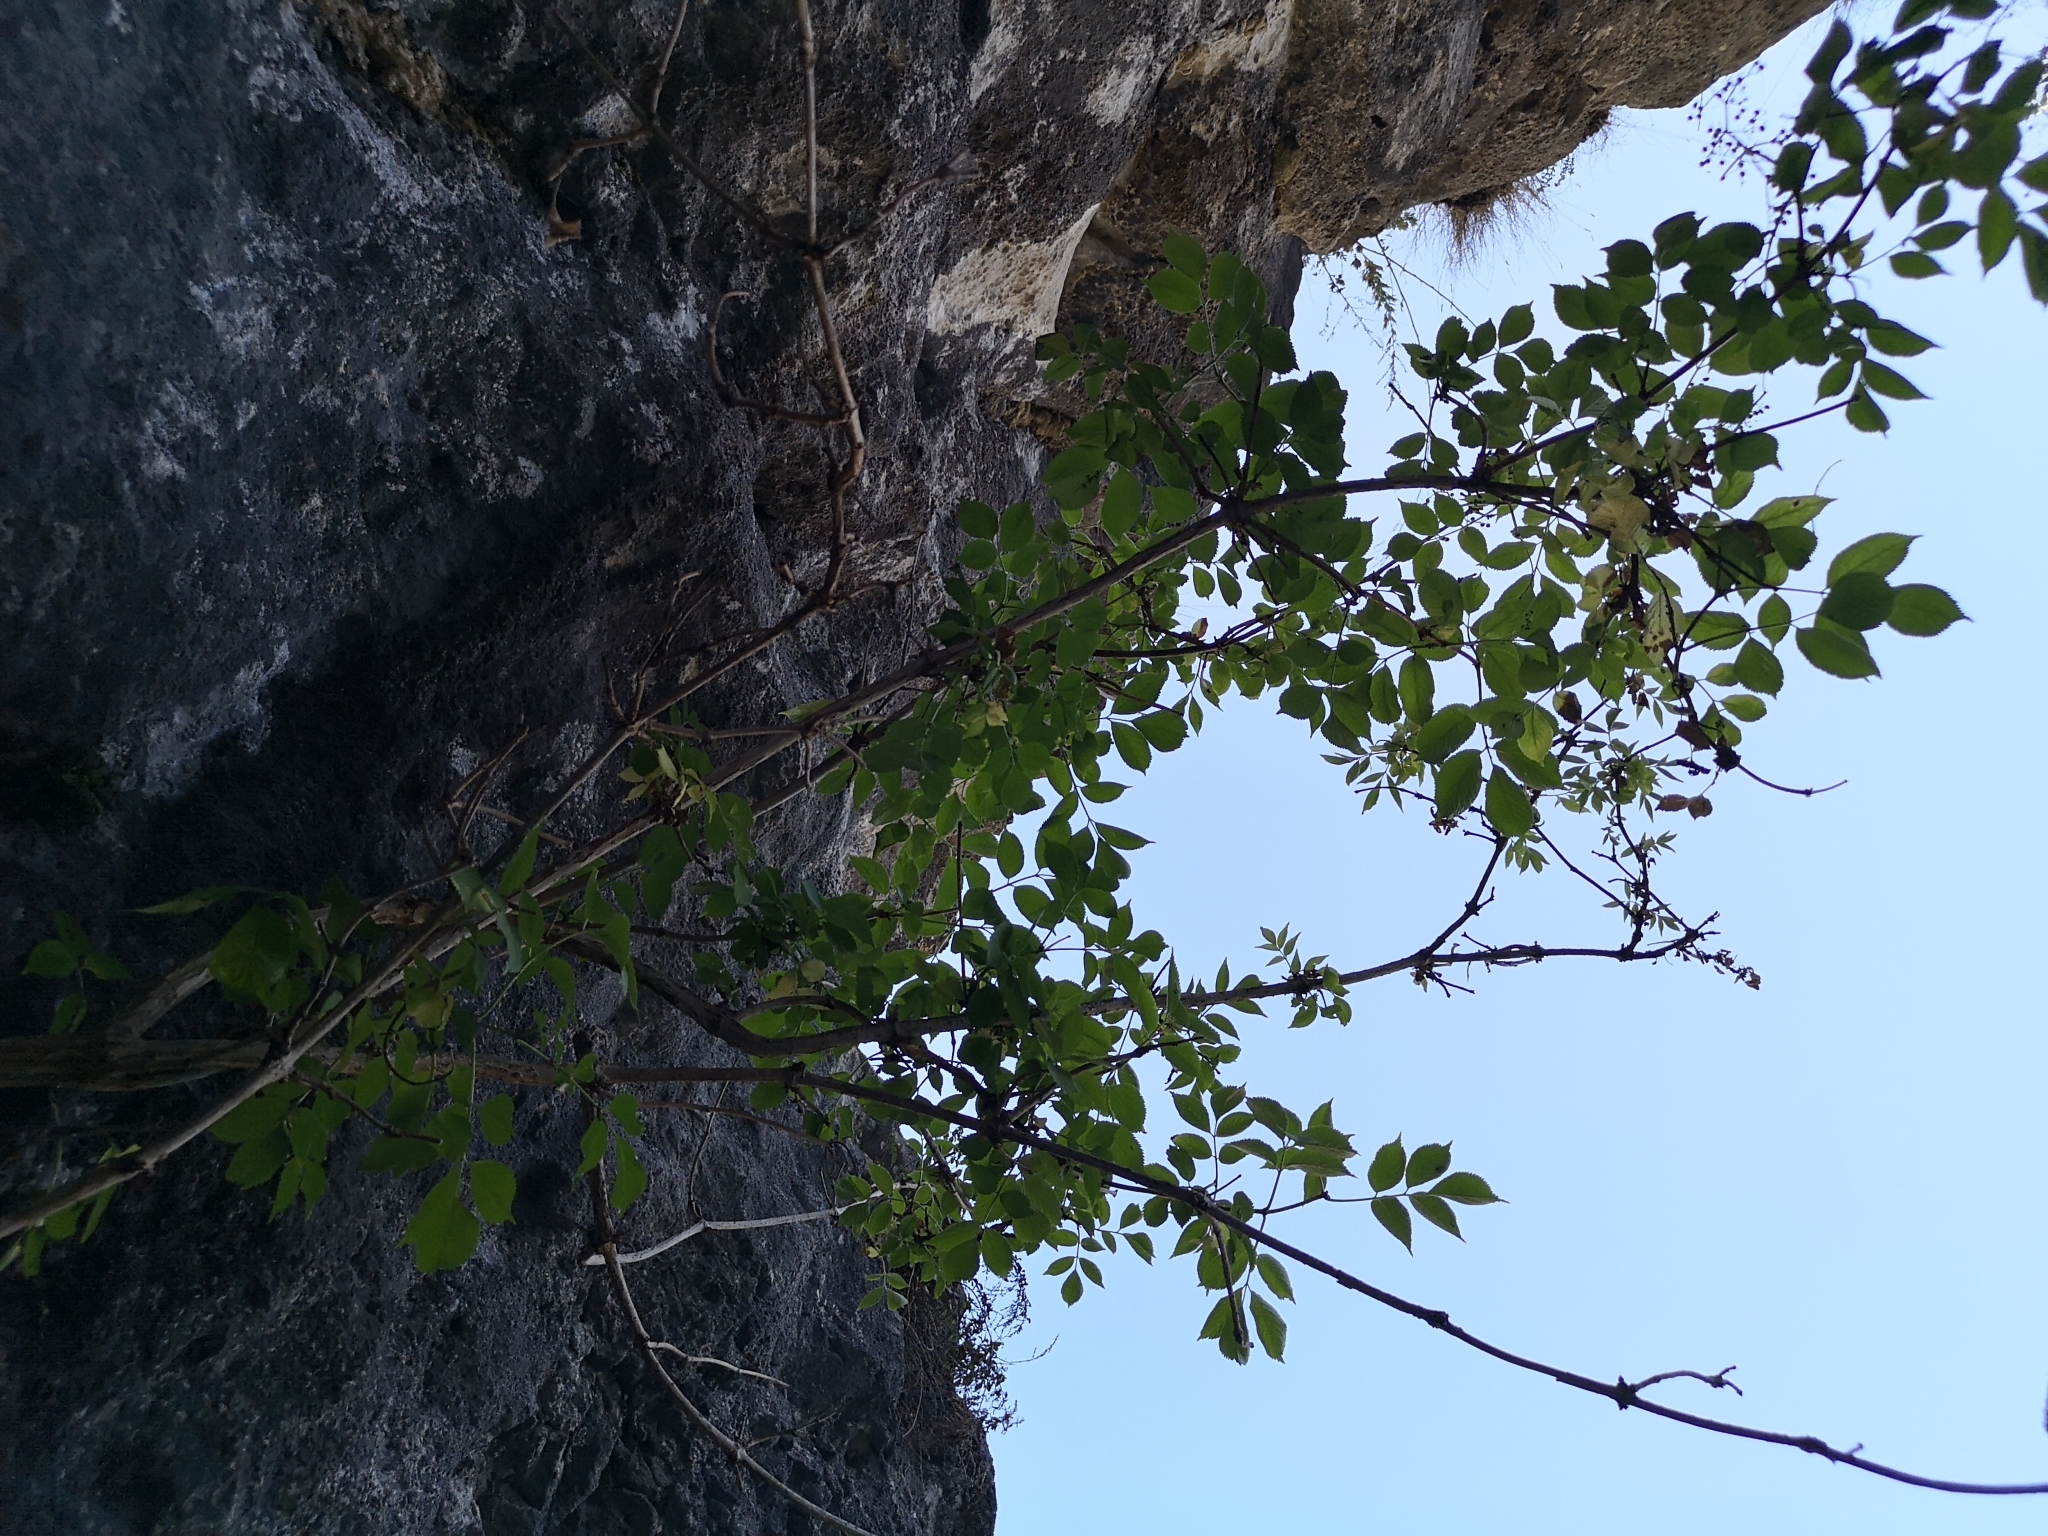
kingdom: Plantae
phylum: Tracheophyta
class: Magnoliopsida
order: Dipsacales
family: Viburnaceae
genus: Sambucus
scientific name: Sambucus nigra
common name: Elder
